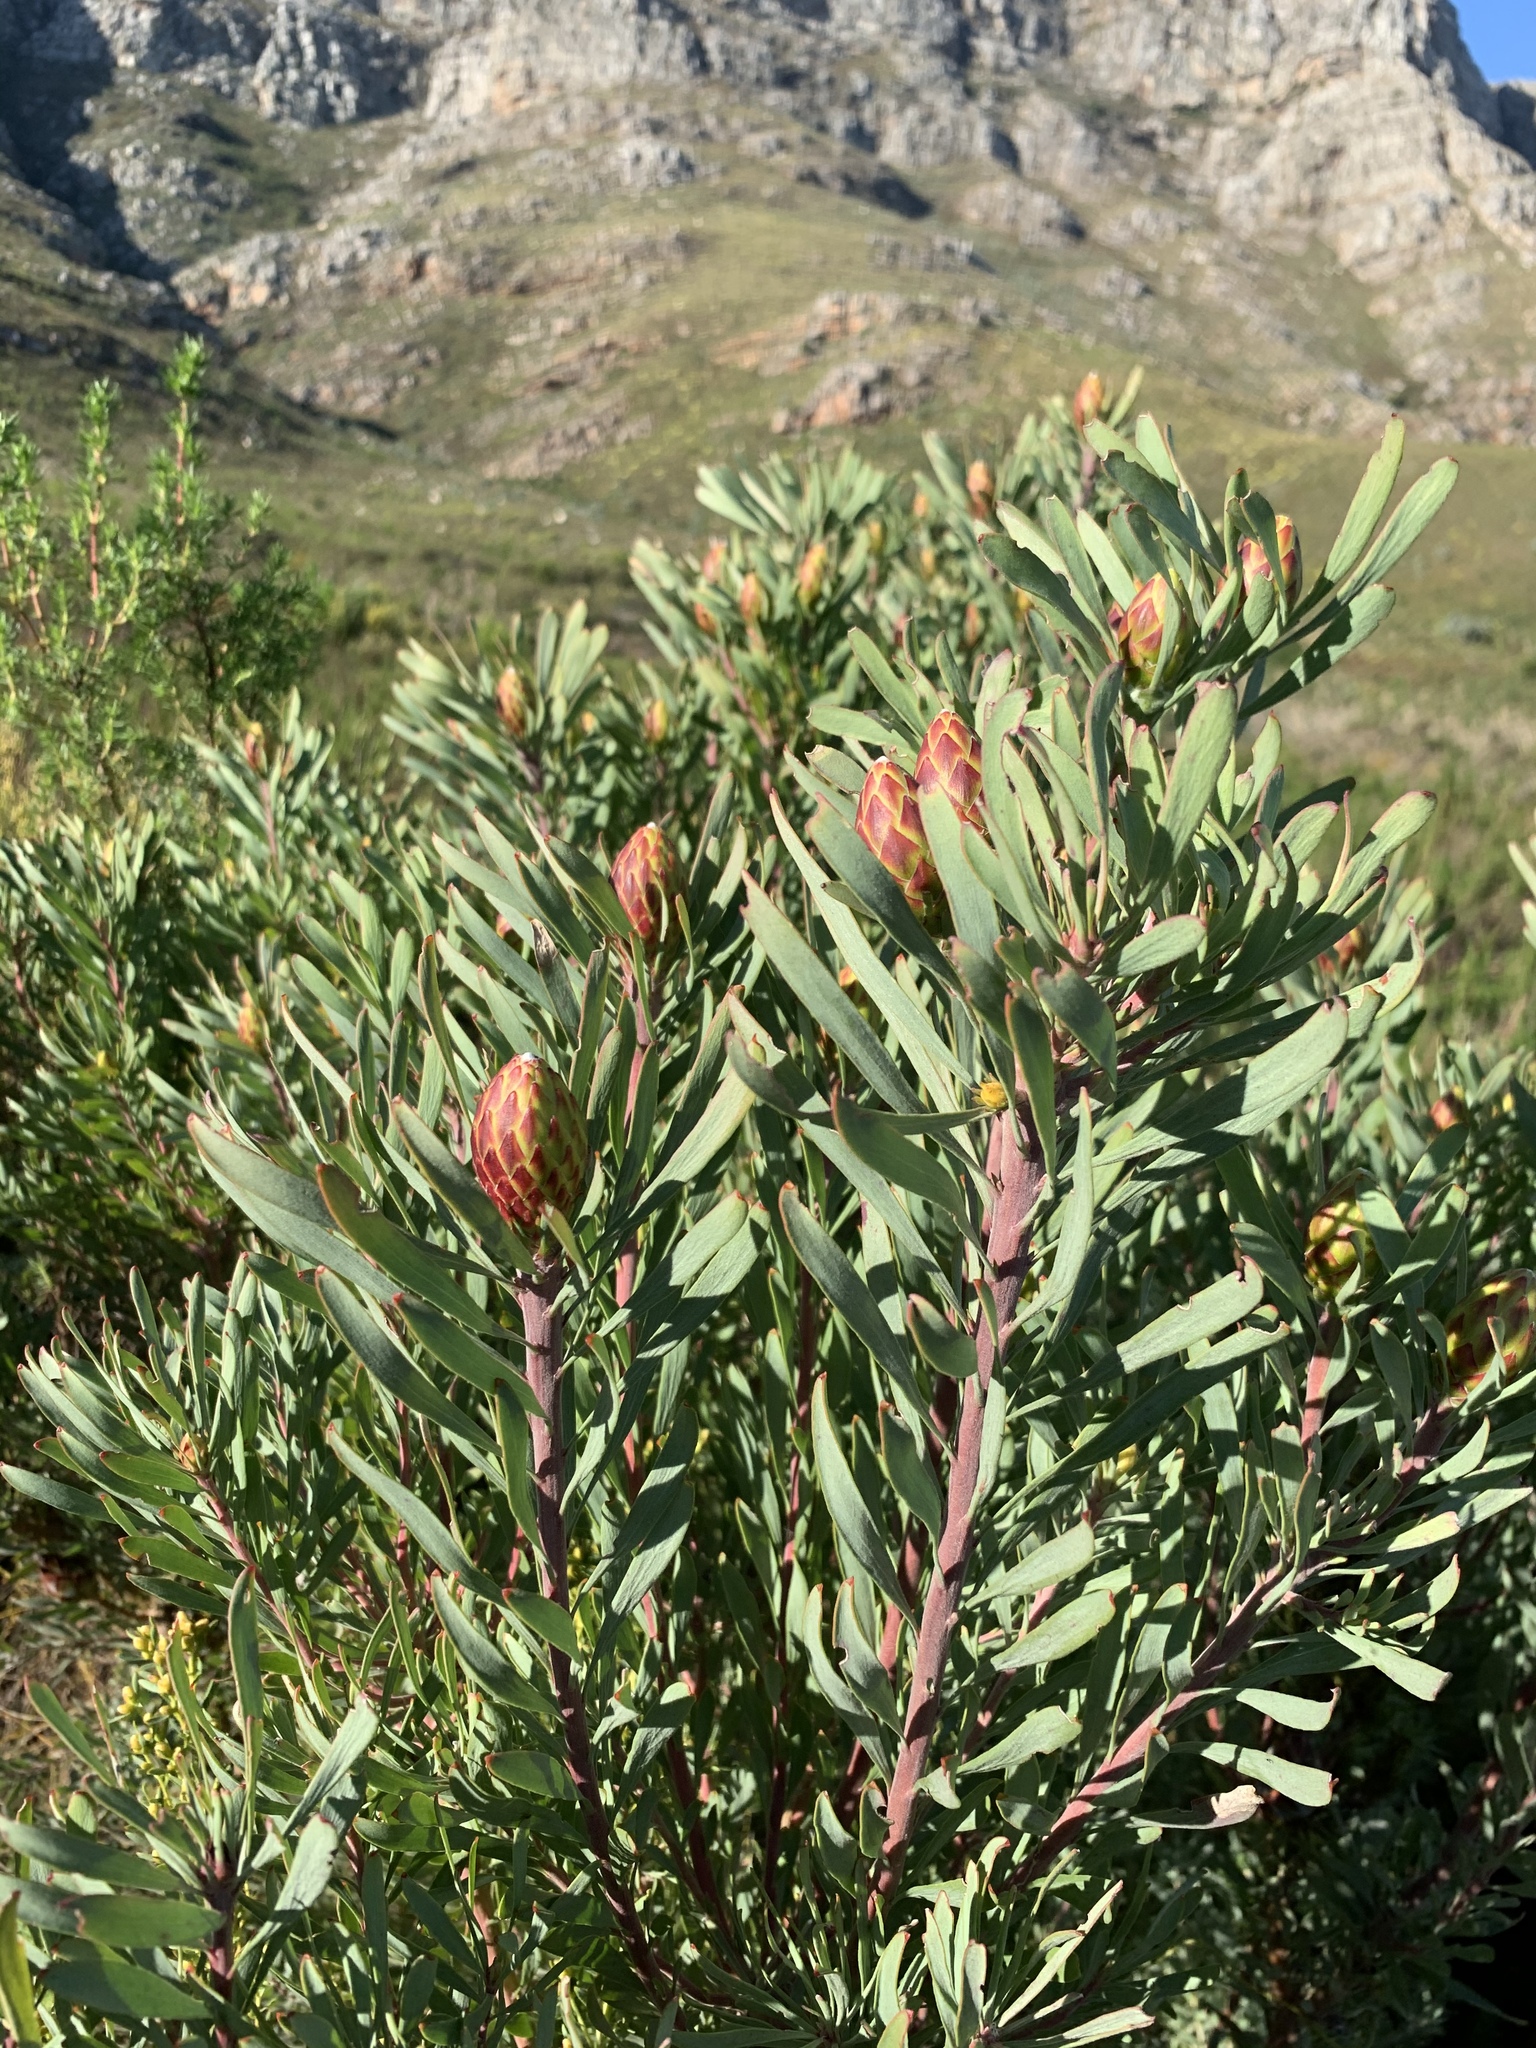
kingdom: Plantae
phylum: Tracheophyta
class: Magnoliopsida
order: Proteales
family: Proteaceae
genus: Leucadendron
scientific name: Leucadendron rubrum
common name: Spinning top
